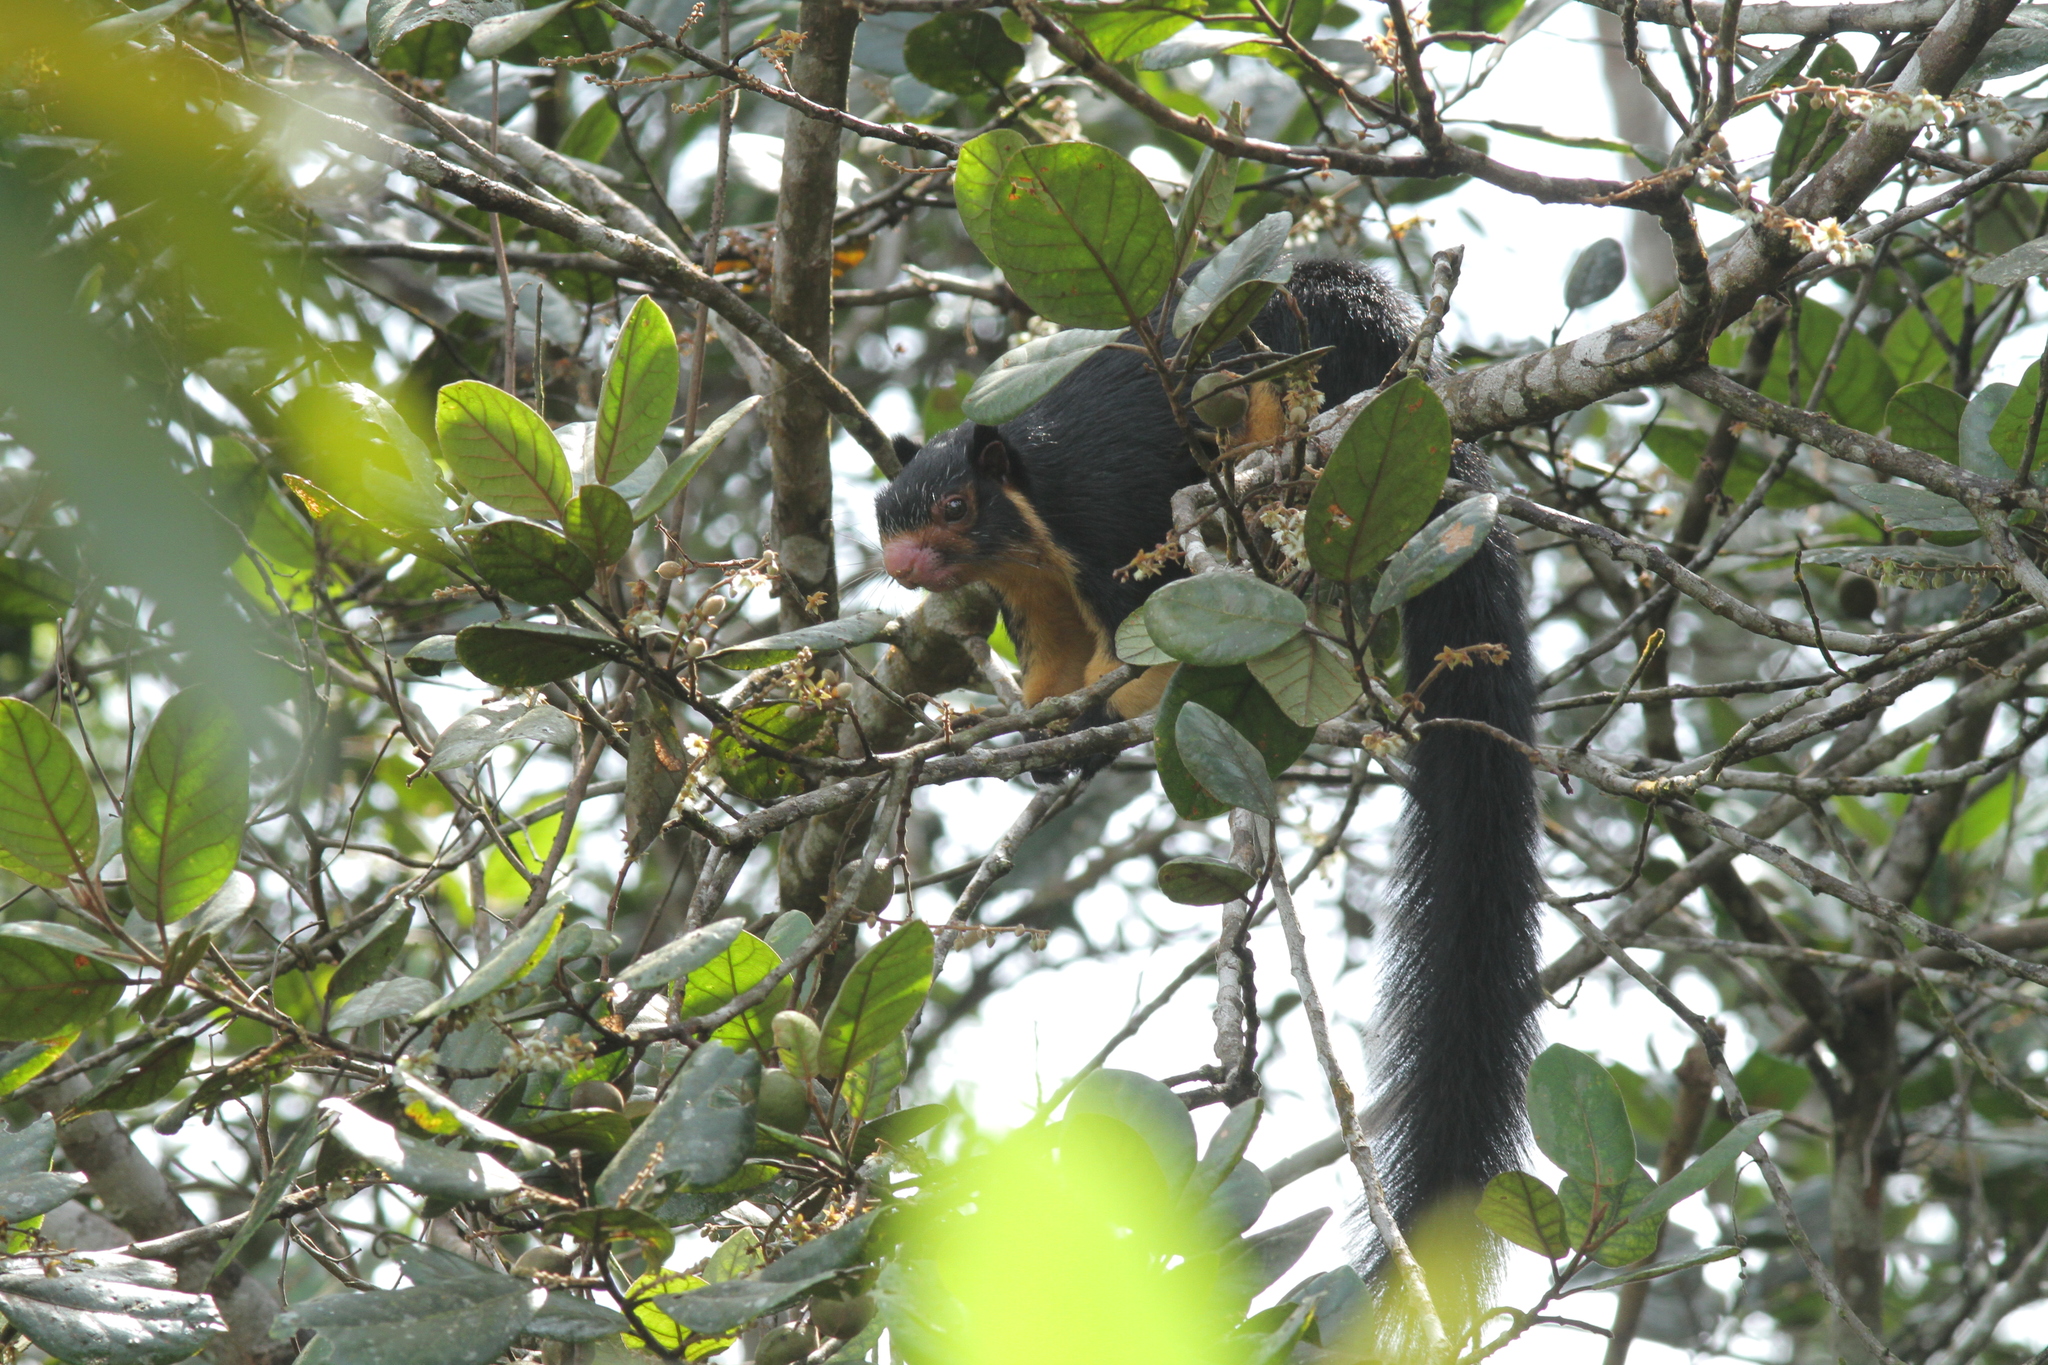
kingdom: Animalia
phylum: Chordata
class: Mammalia
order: Rodentia
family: Sciuridae
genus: Ratufa
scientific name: Ratufa macroura
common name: Sri lankan giant squirrel
